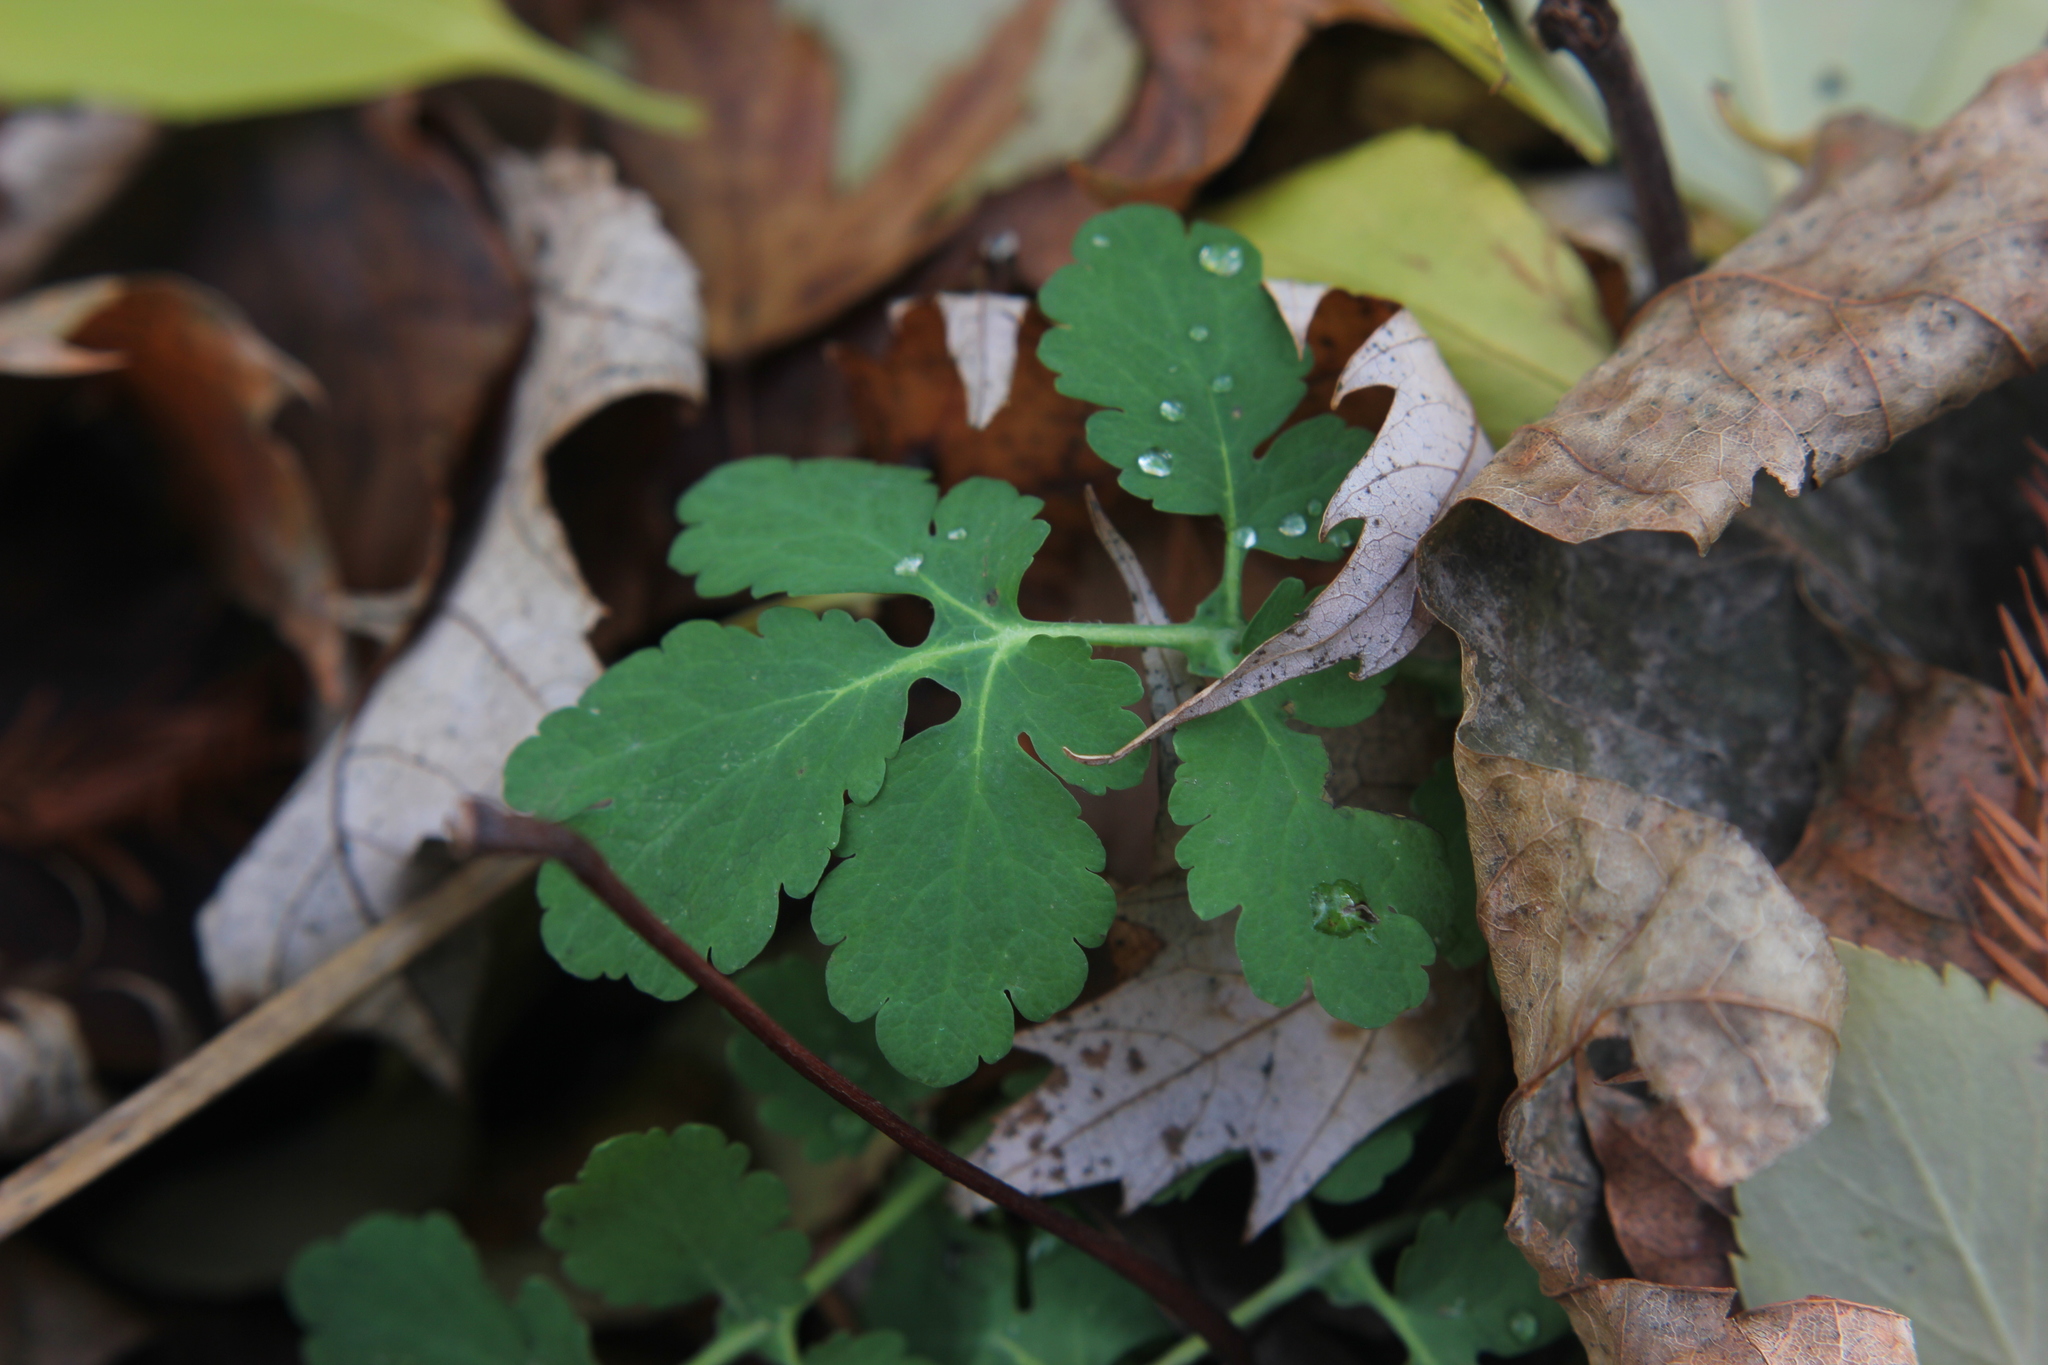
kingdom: Plantae
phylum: Tracheophyta
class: Magnoliopsida
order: Ranunculales
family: Papaveraceae
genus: Chelidonium
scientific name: Chelidonium majus
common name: Greater celandine
